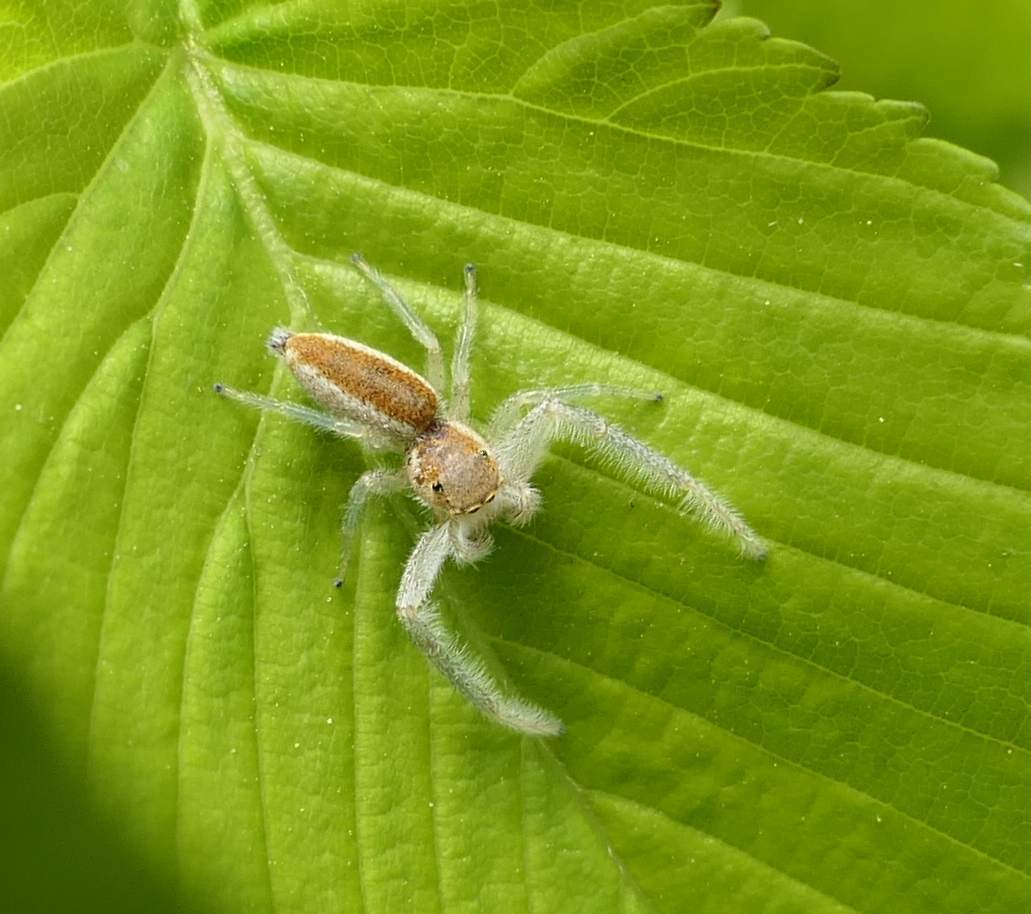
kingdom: Animalia
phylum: Arthropoda
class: Arachnida
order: Araneae
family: Salticidae
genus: Hentzia
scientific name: Hentzia mitrata
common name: White-jawed jumping spider
